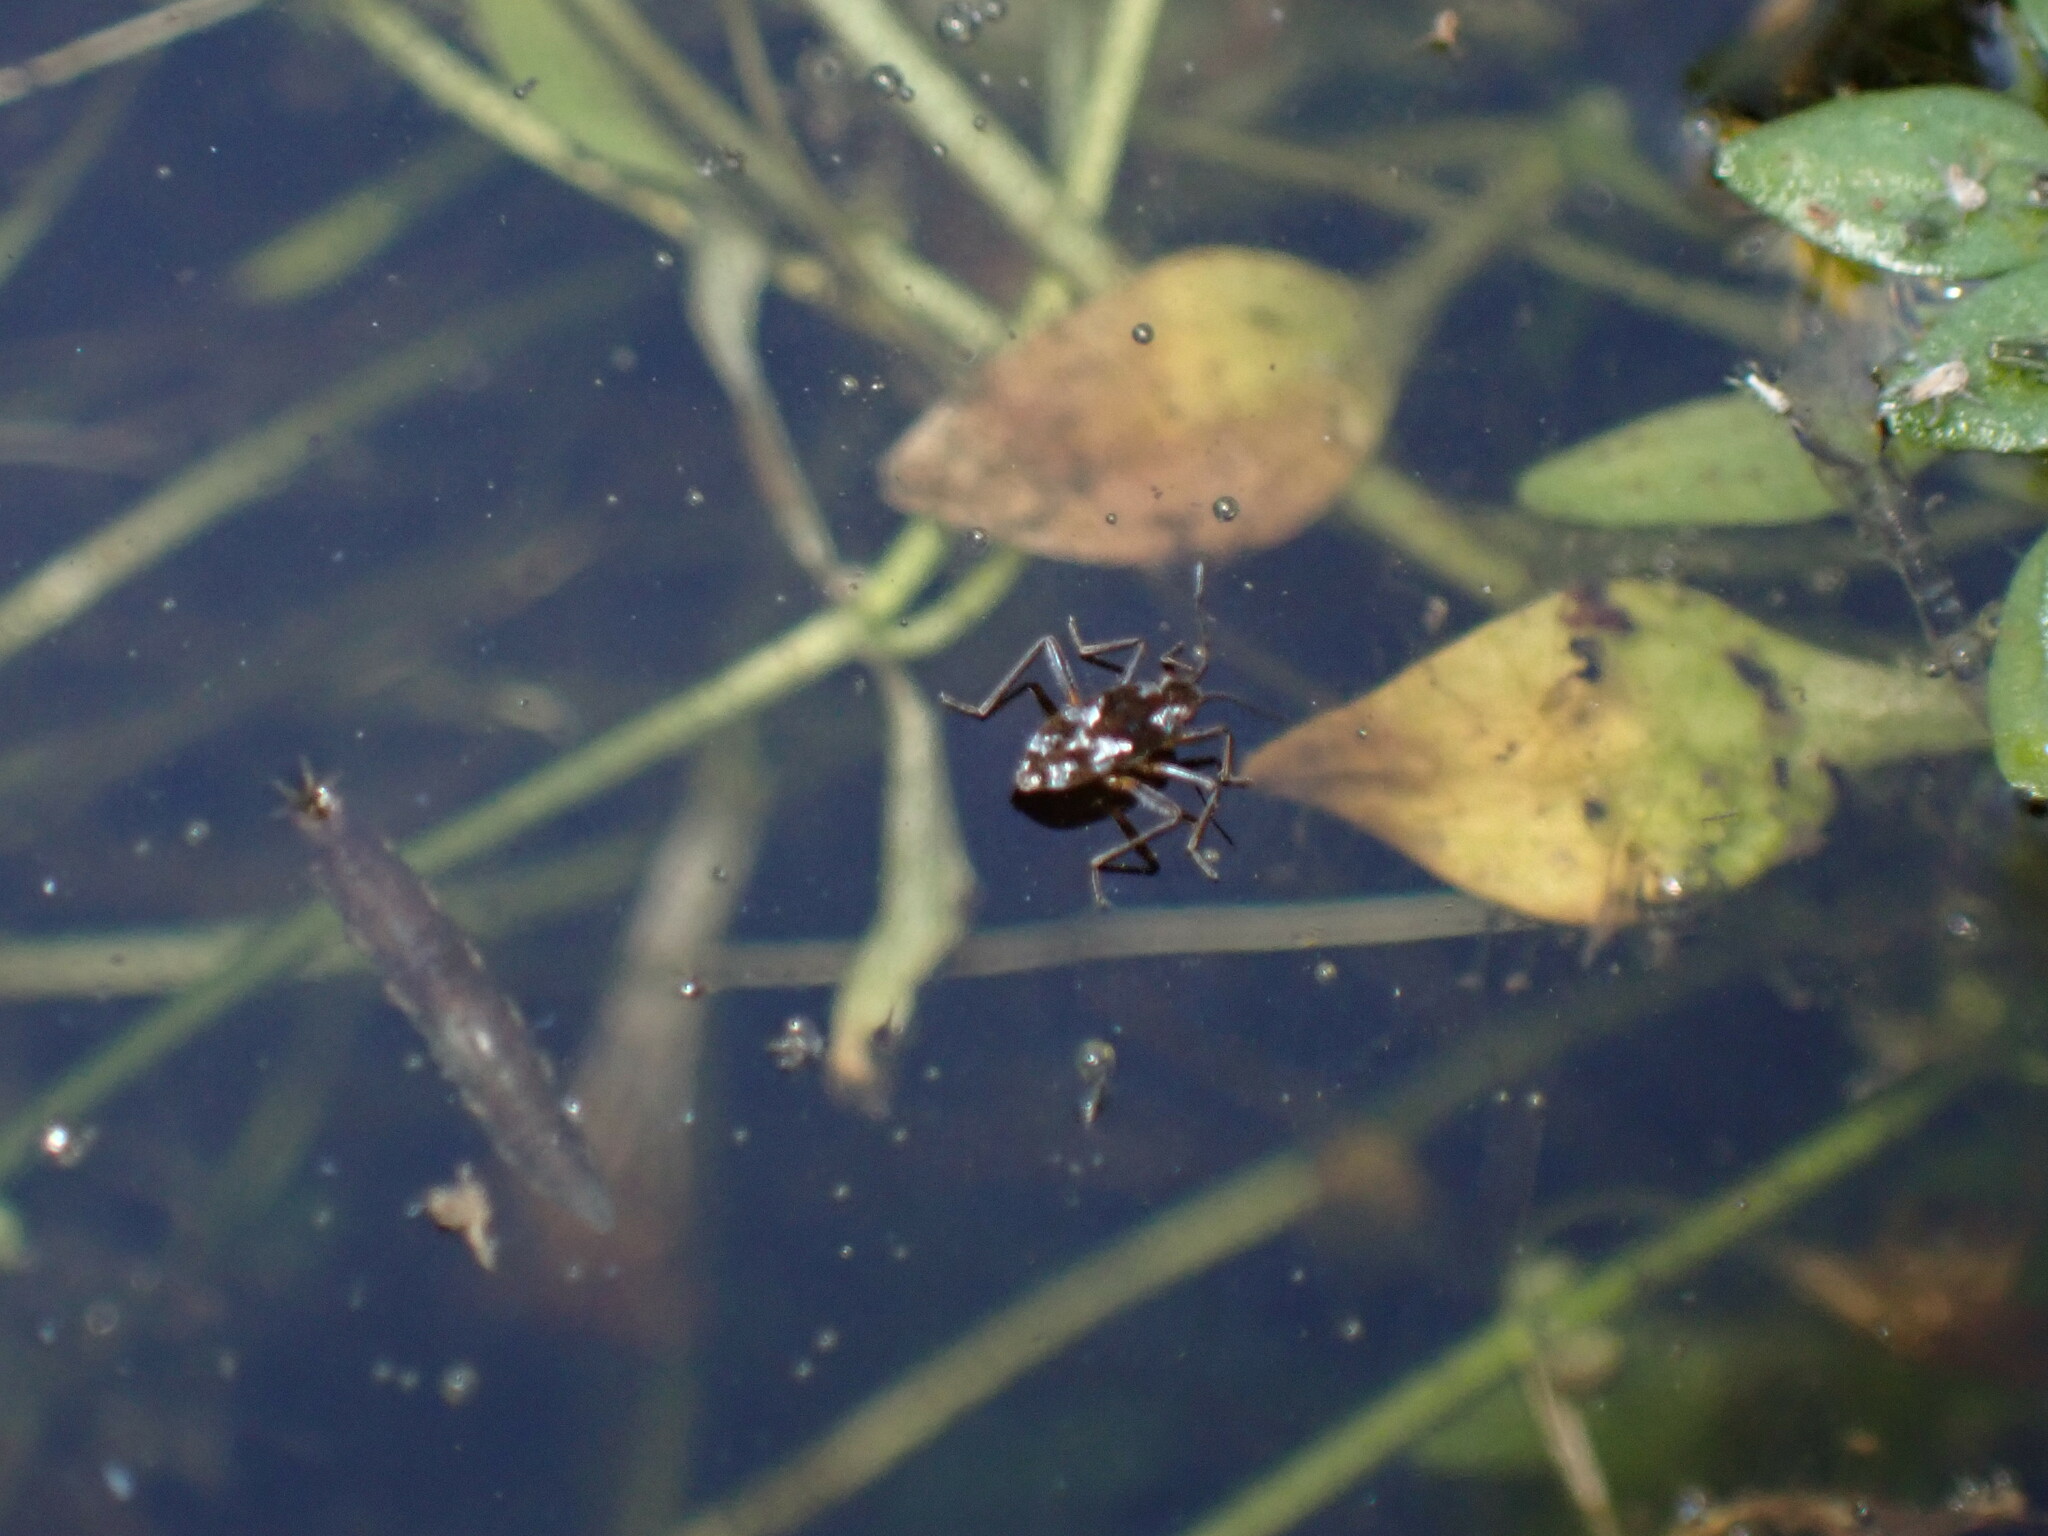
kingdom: Animalia
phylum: Arthropoda
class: Insecta
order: Hemiptera
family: Veliidae
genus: Microvelia
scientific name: Microvelia americana
